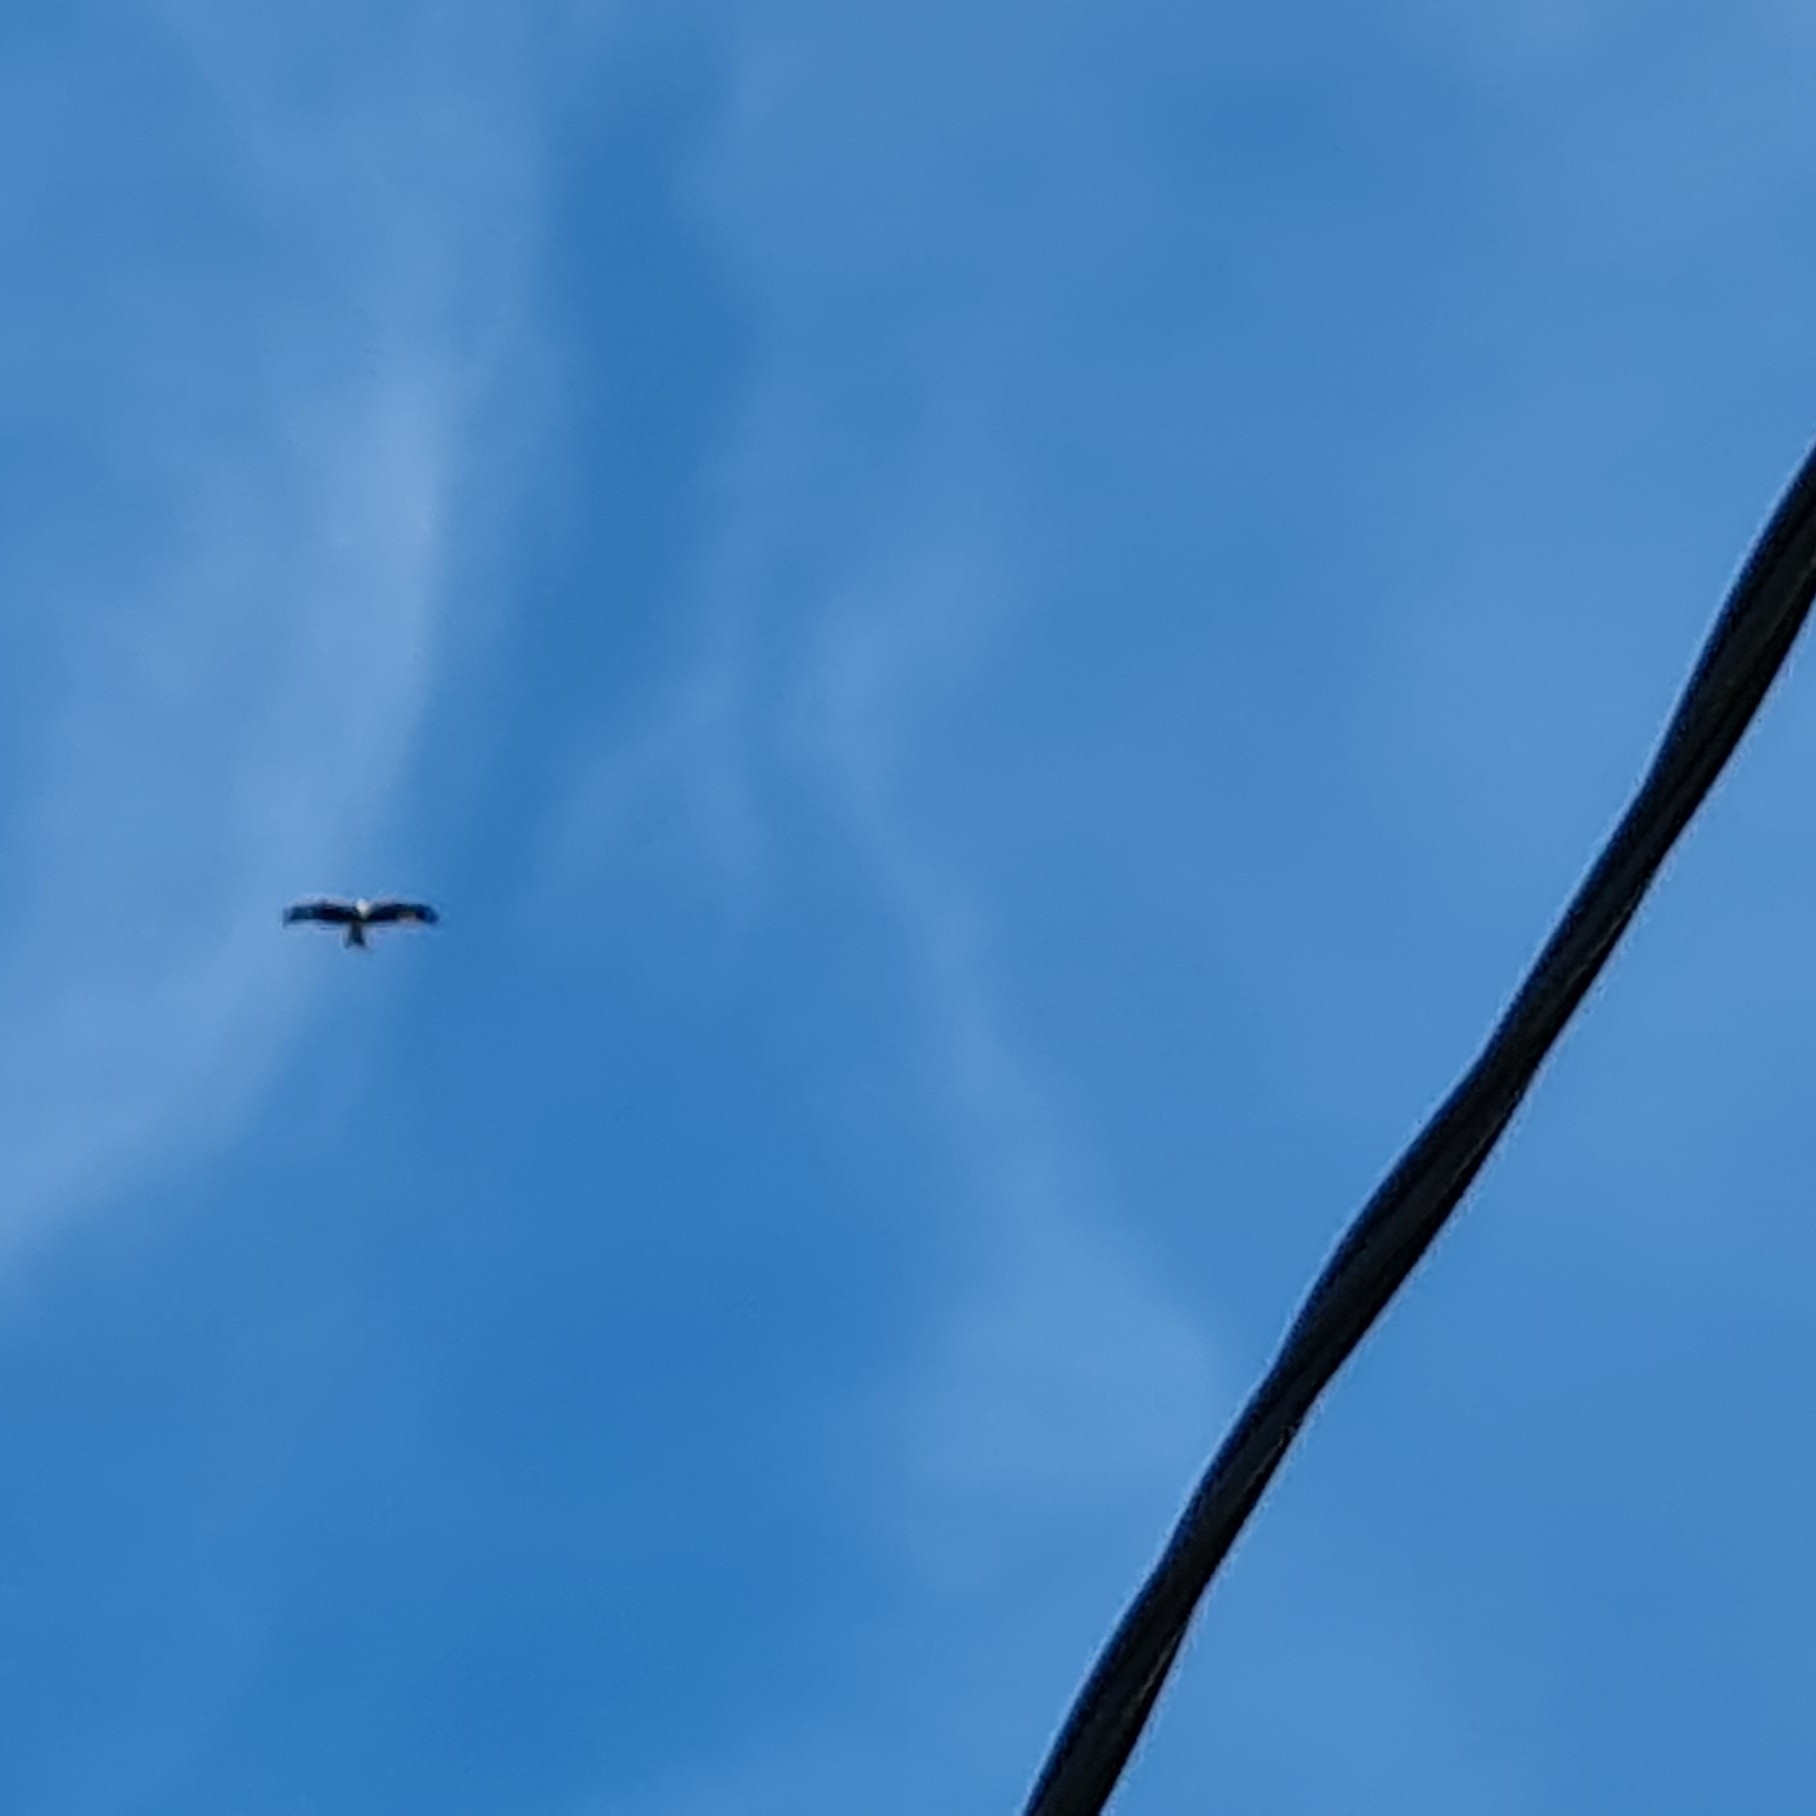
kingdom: Animalia
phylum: Chordata
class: Aves
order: Accipitriformes
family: Accipitridae
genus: Milvus
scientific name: Milvus milvus
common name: Red kite
